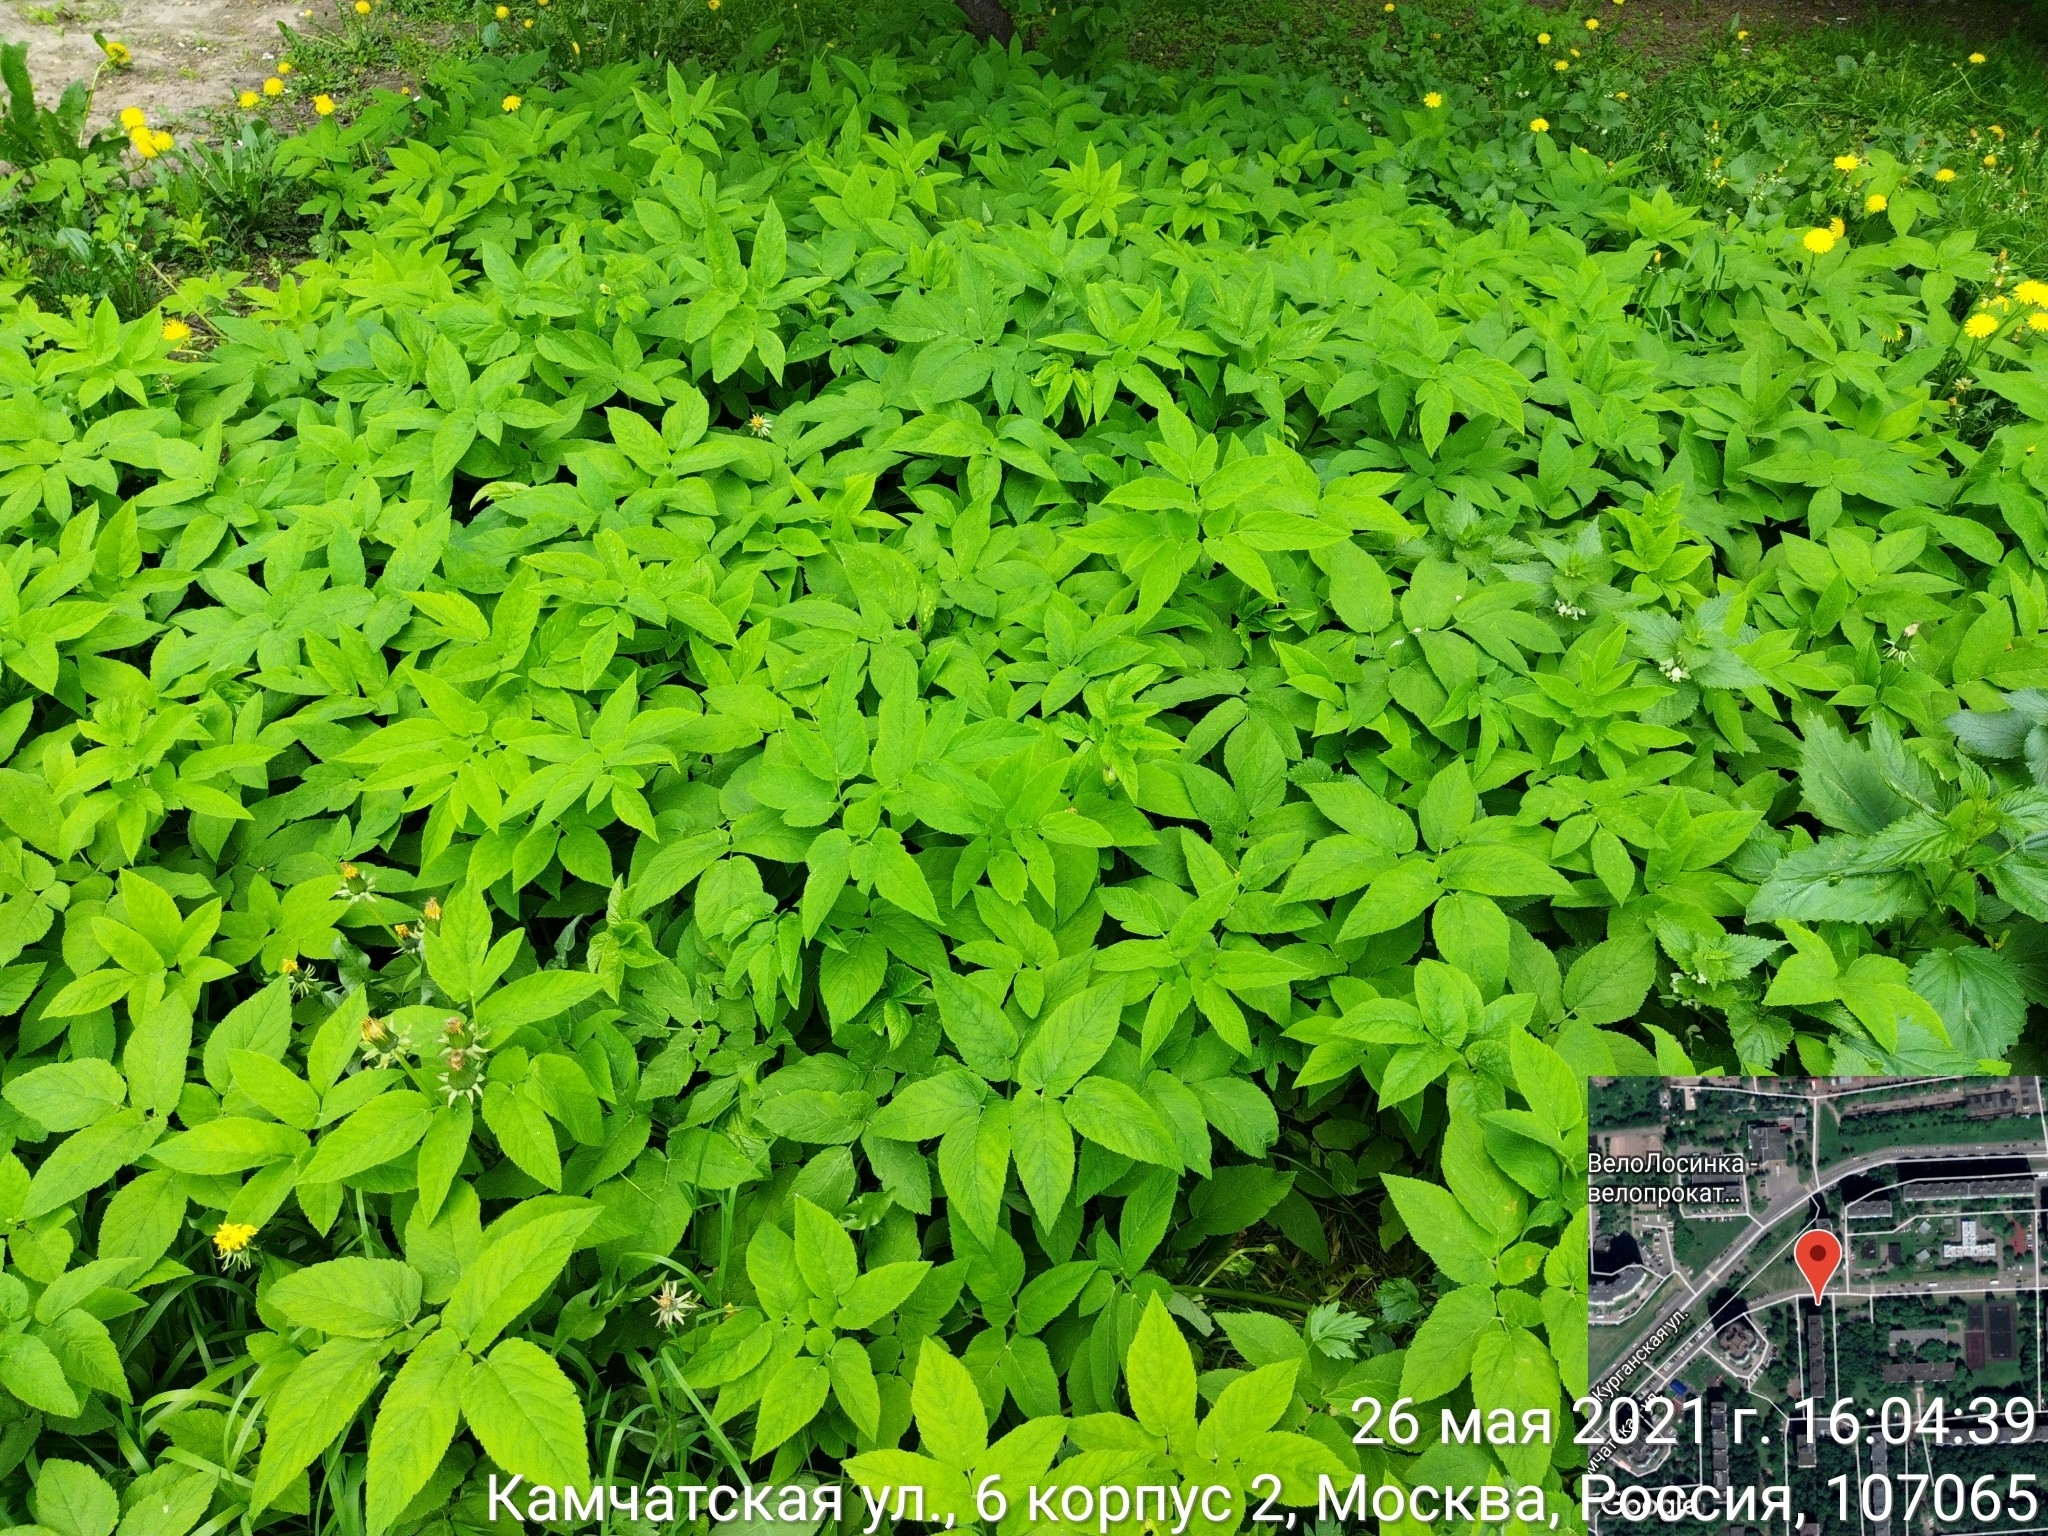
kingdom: Plantae
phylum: Tracheophyta
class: Magnoliopsida
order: Apiales
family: Apiaceae
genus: Aegopodium
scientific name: Aegopodium podagraria
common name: Ground-elder
